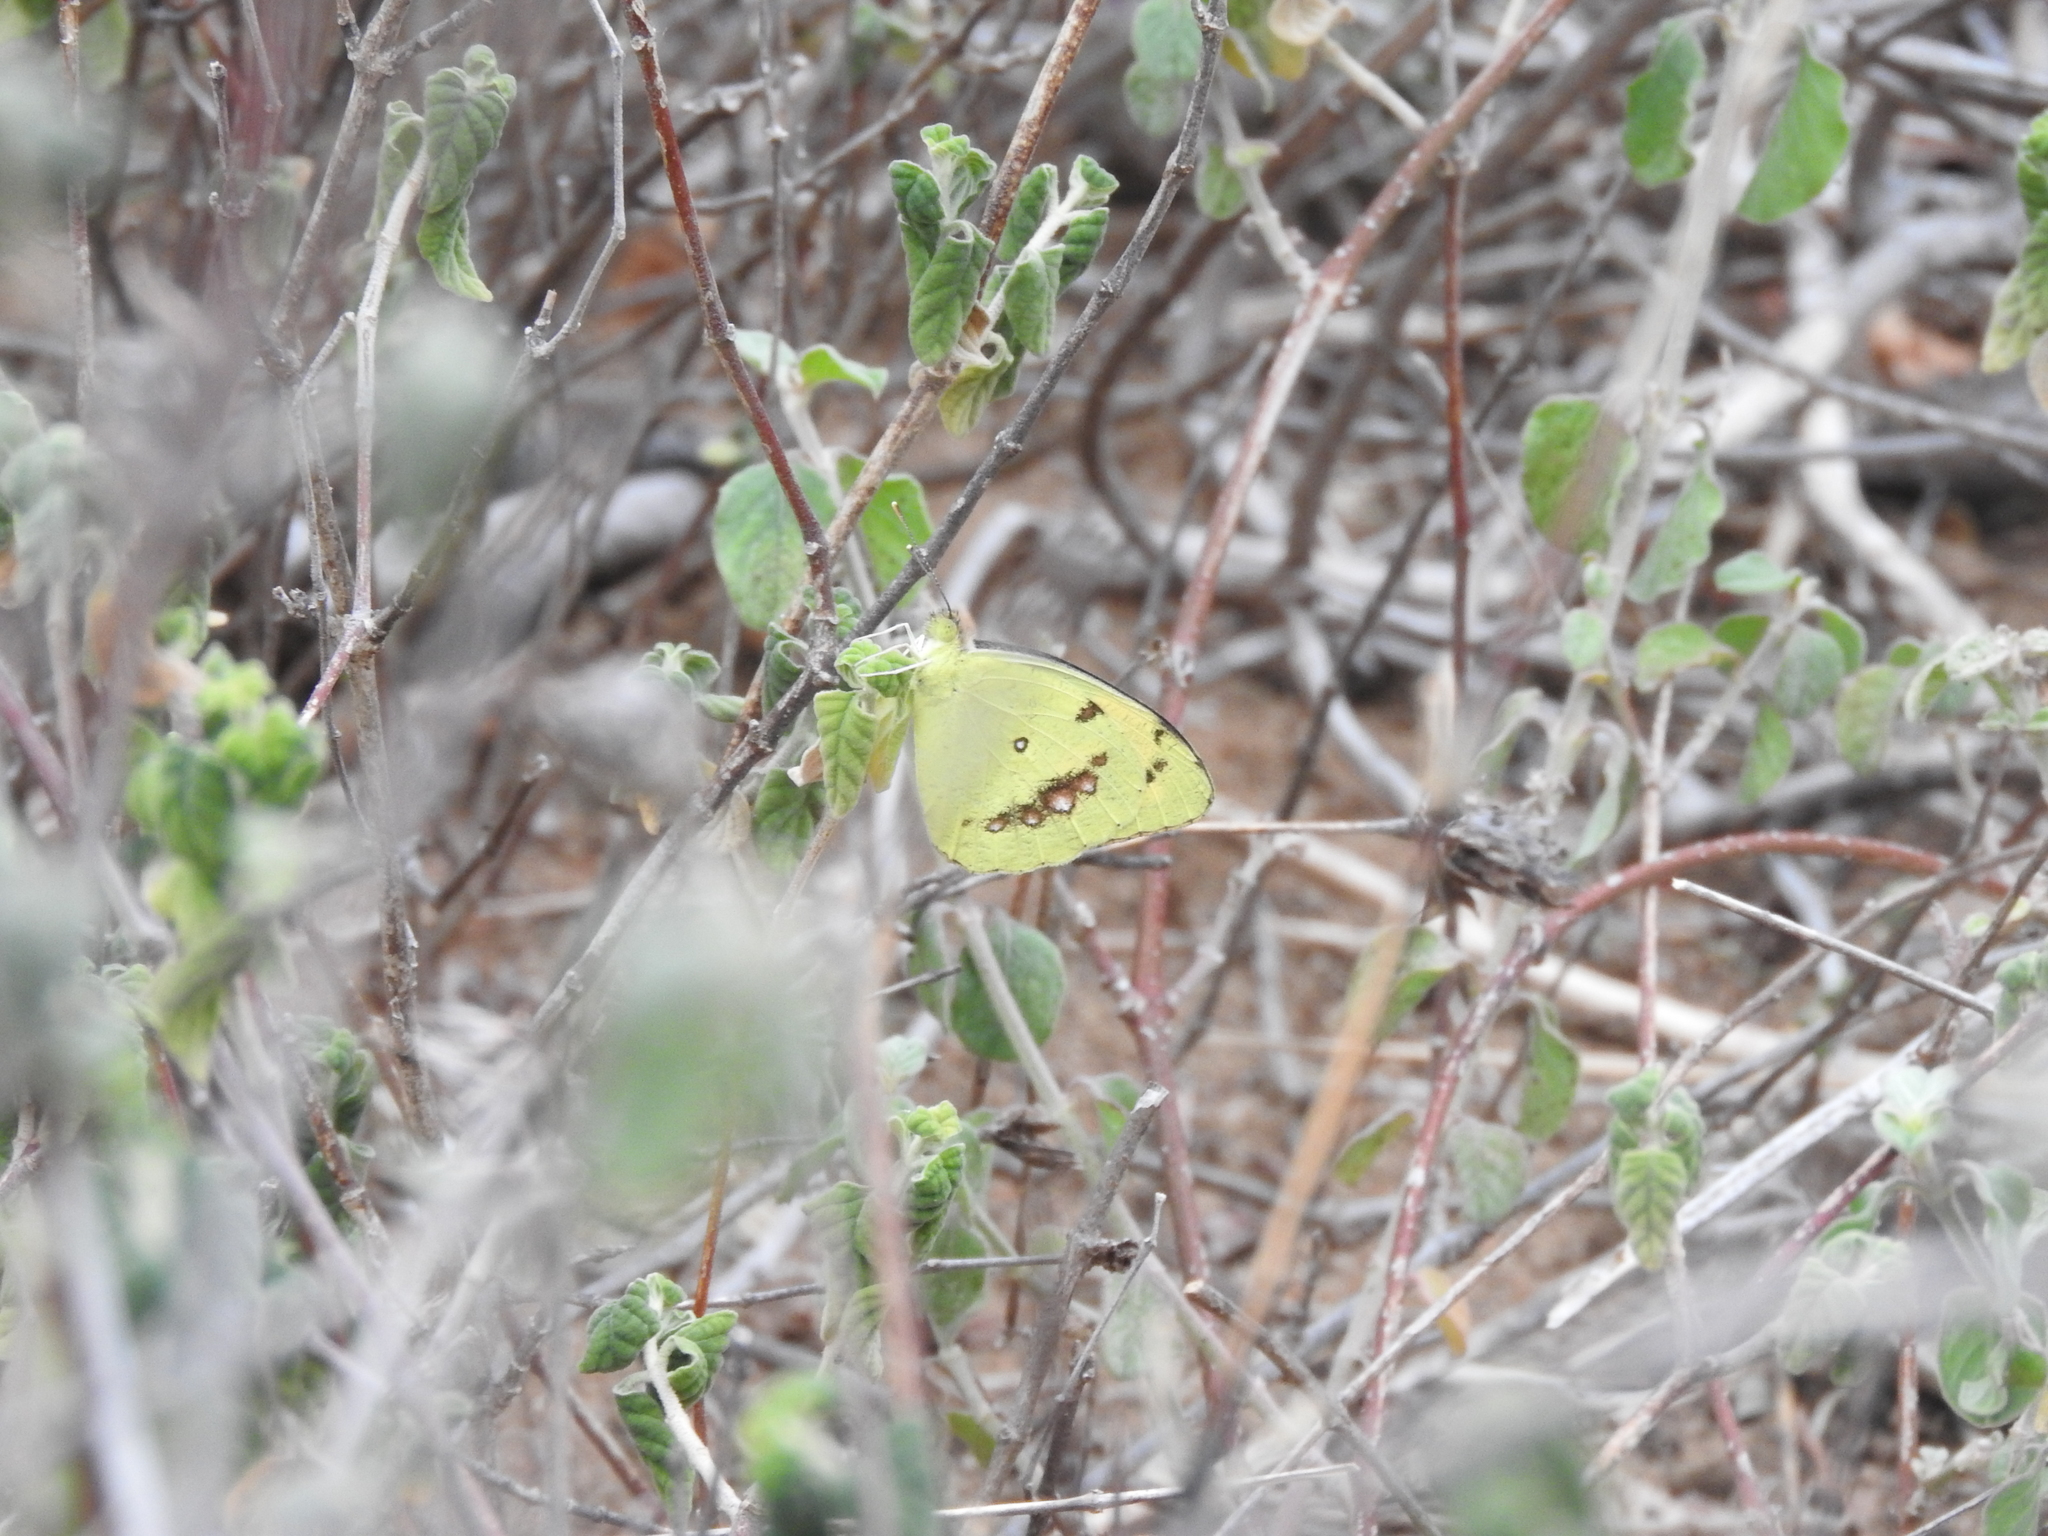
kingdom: Animalia
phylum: Arthropoda
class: Insecta
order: Lepidoptera
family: Pieridae
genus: Ixias
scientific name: Ixias marianne
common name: White orange tip
